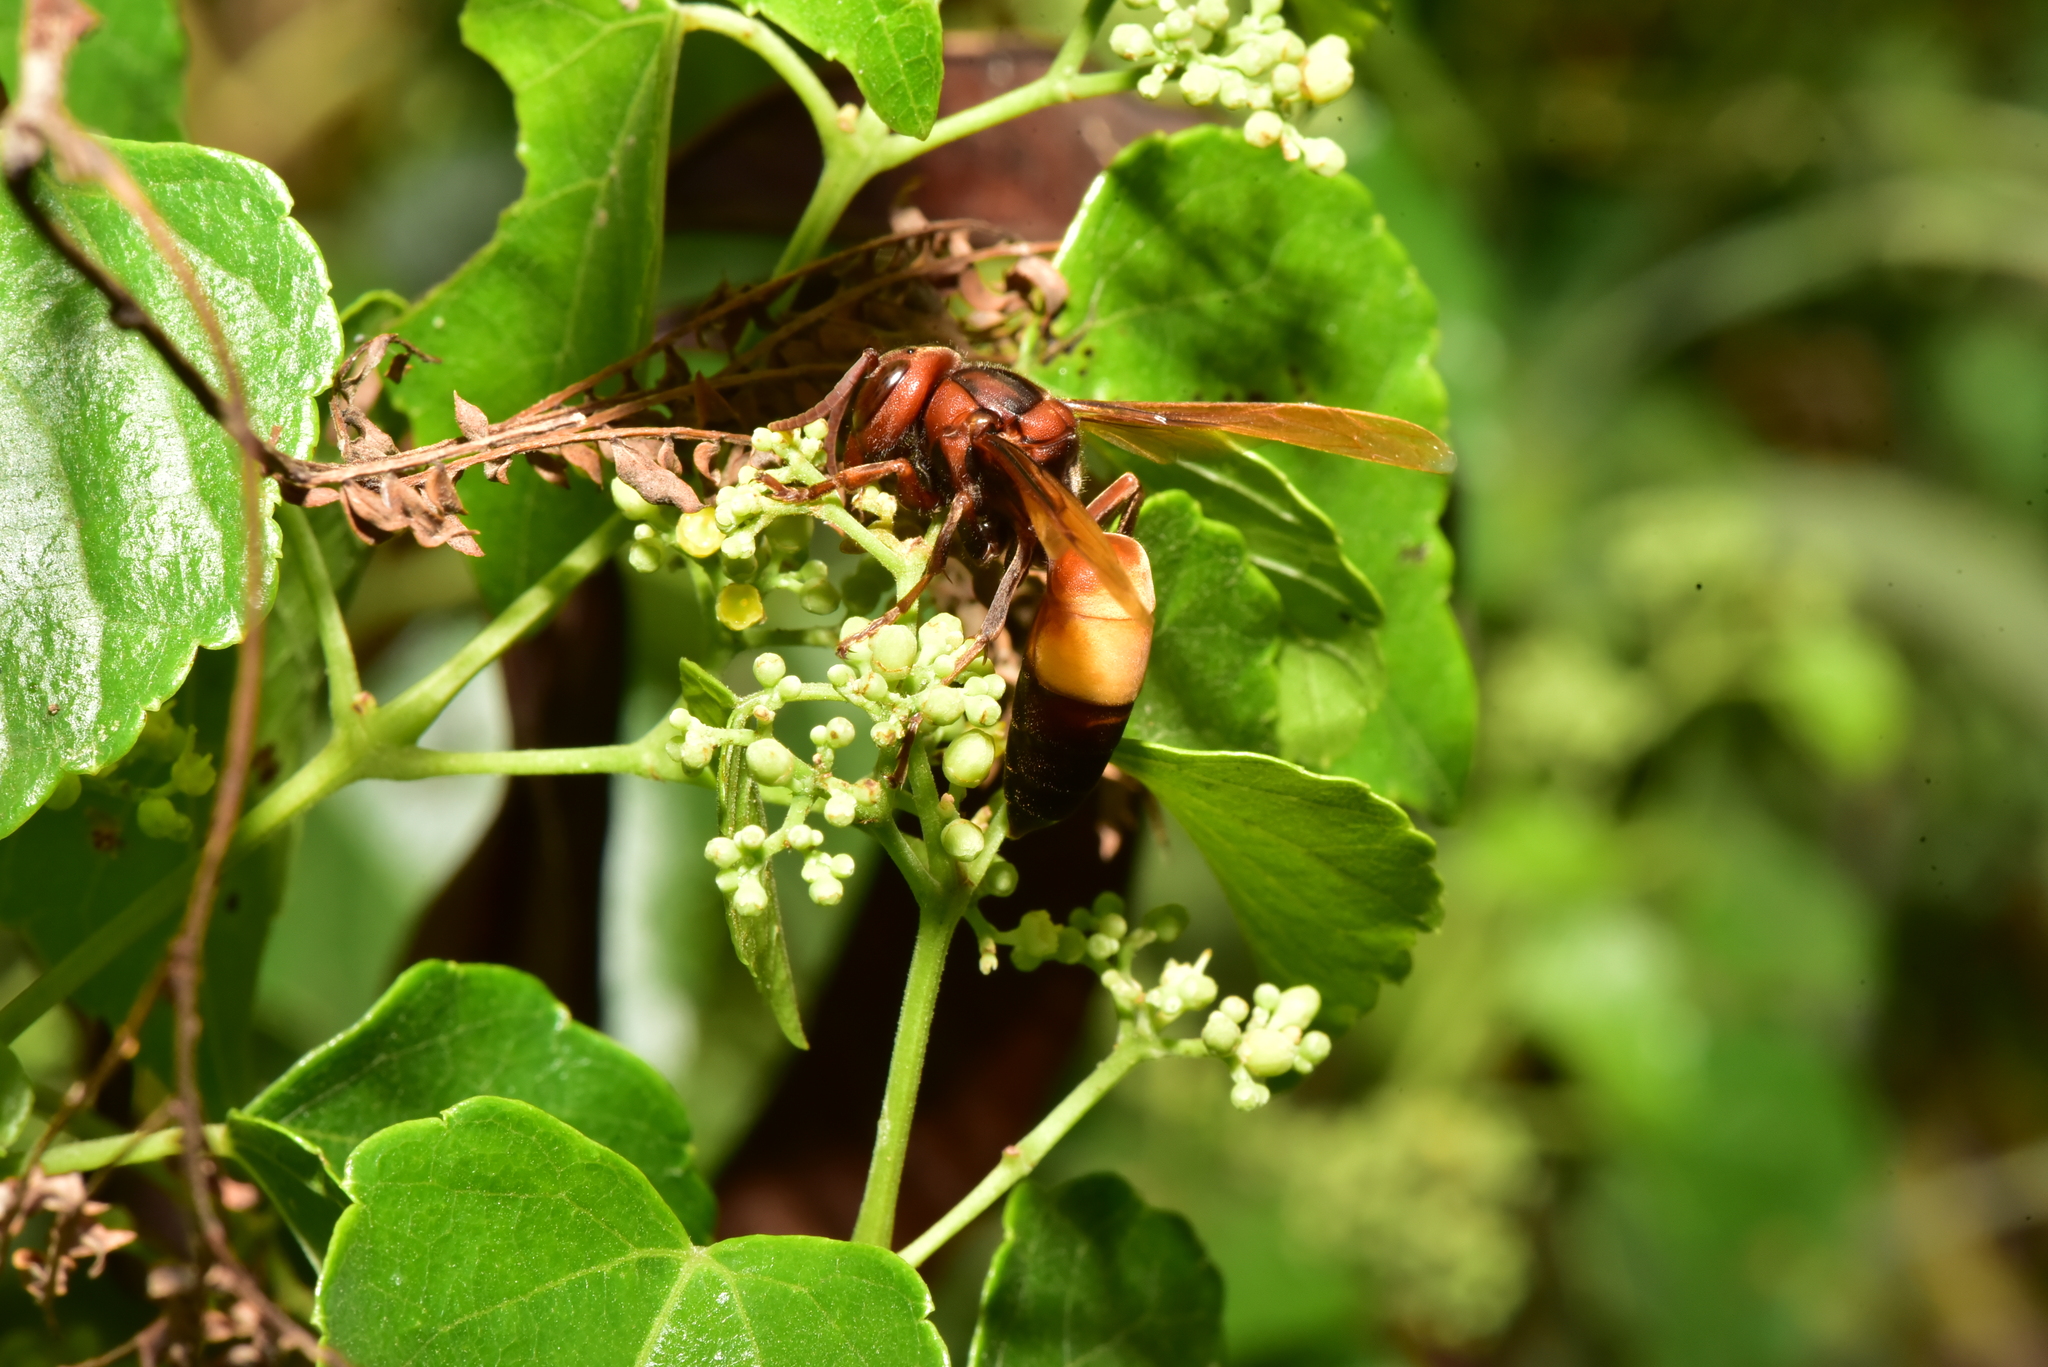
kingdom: Animalia
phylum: Arthropoda
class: Insecta
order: Hymenoptera
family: Vespidae
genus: Vespa
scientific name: Vespa affinis
